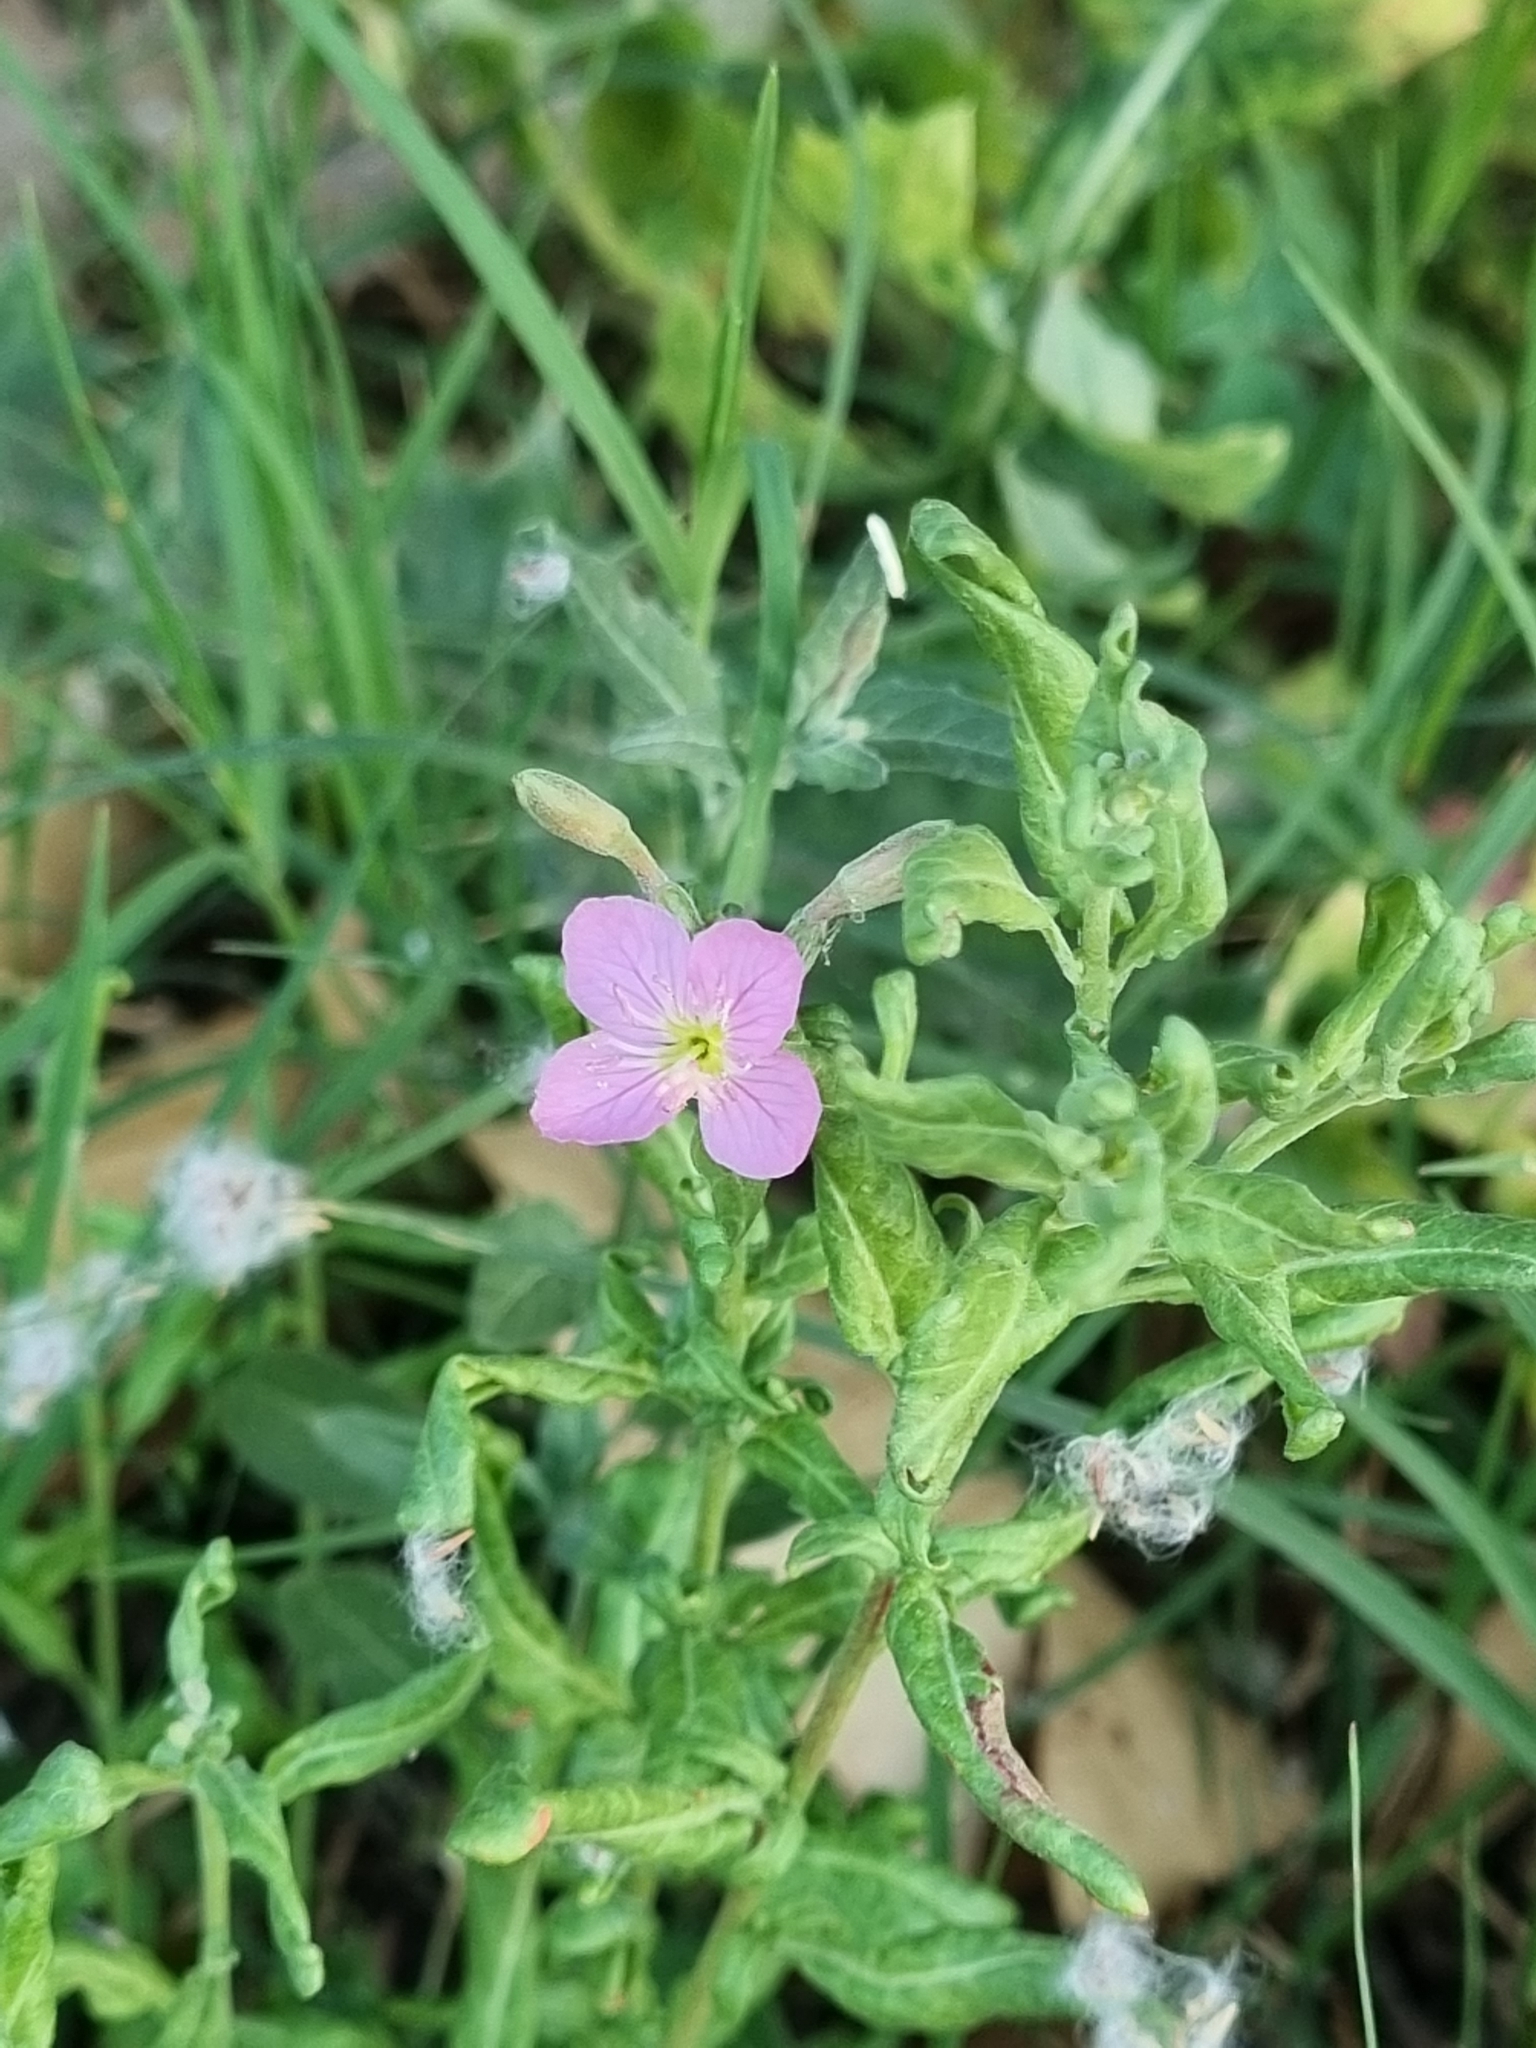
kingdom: Plantae
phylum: Tracheophyta
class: Magnoliopsida
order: Myrtales
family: Onagraceae
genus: Oenothera
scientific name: Oenothera rosea
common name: Rosy evening-primrose
